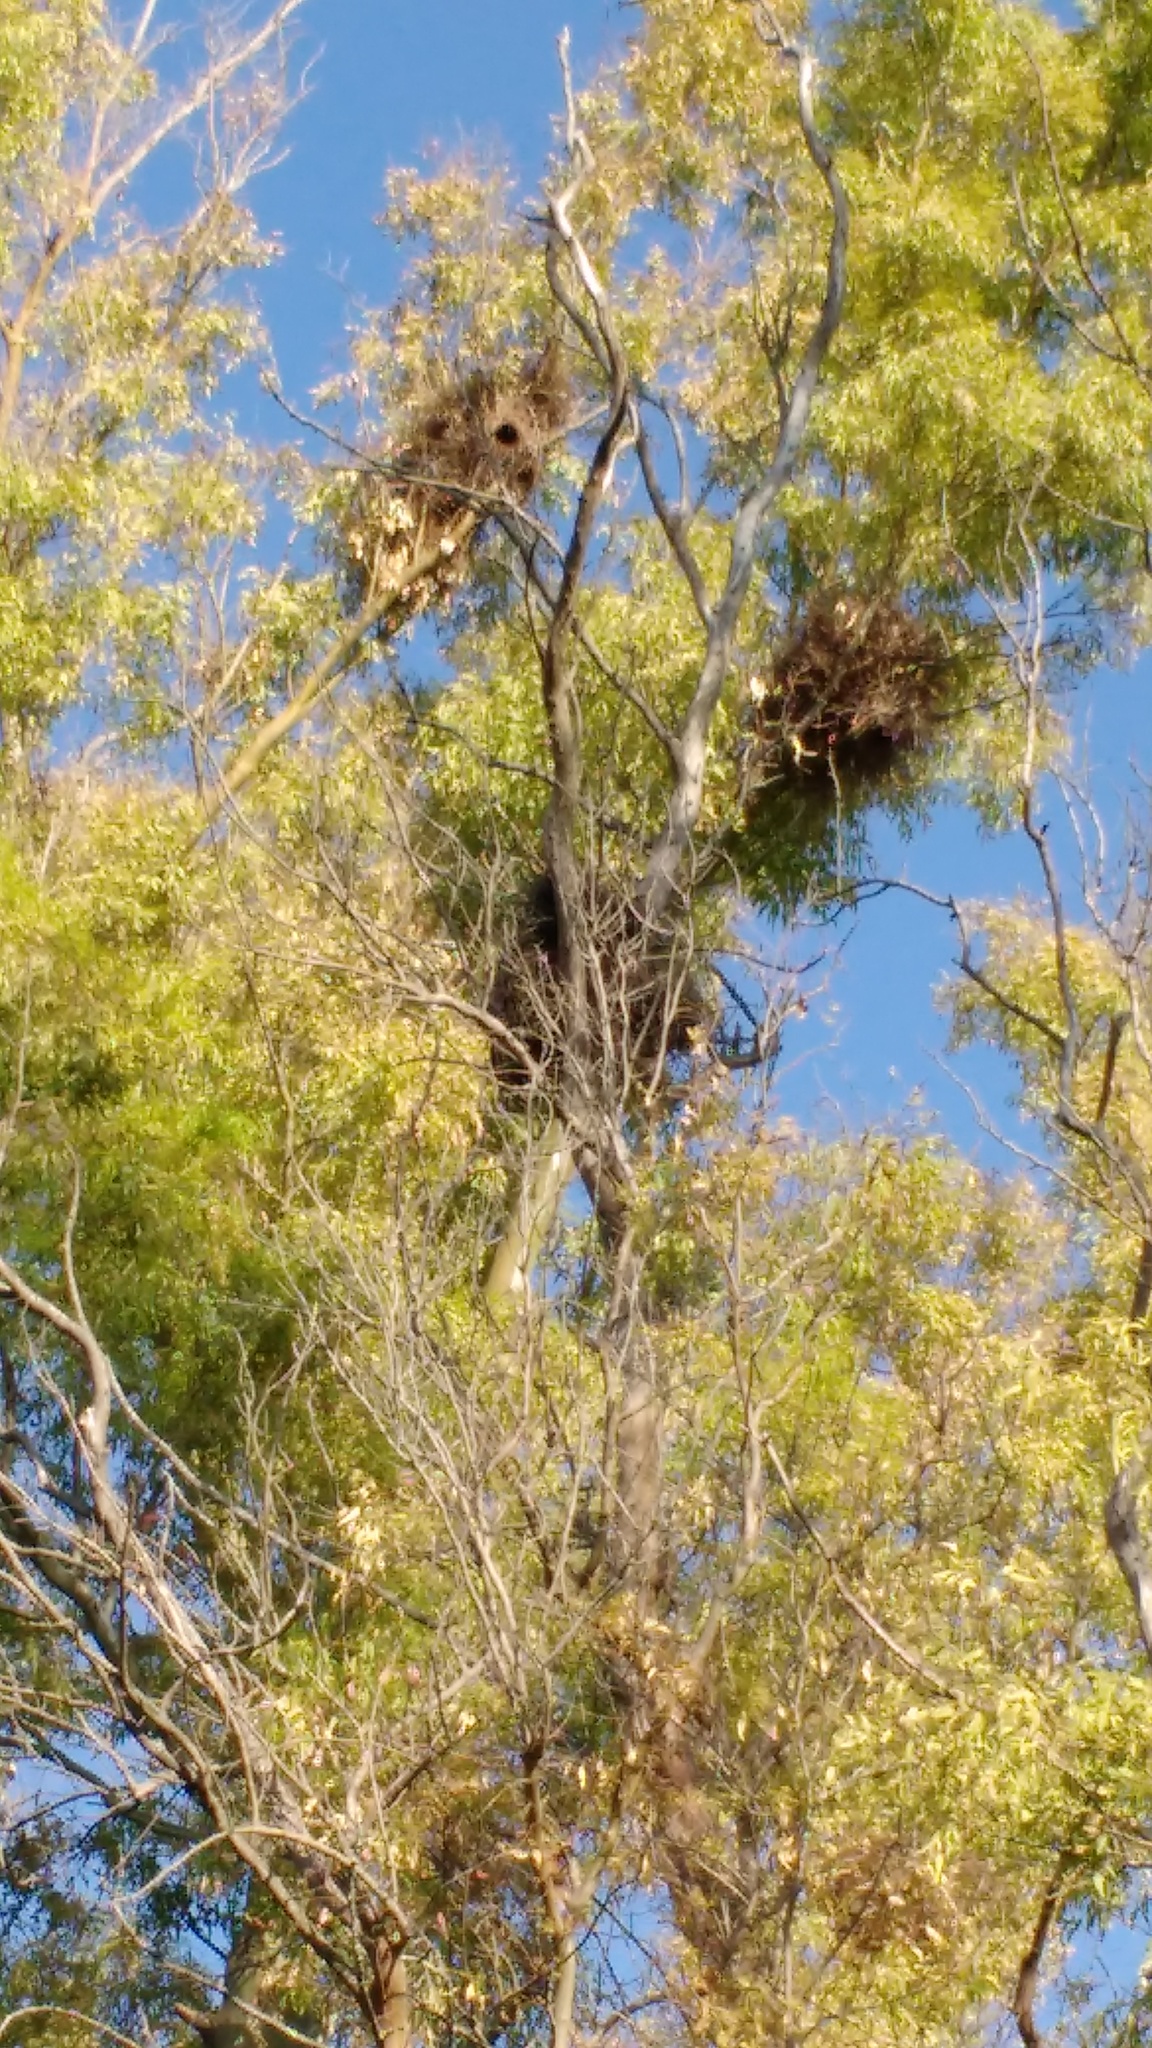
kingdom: Animalia
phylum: Chordata
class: Aves
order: Psittaciformes
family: Psittacidae
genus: Myiopsitta
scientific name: Myiopsitta monachus
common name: Monk parakeet
